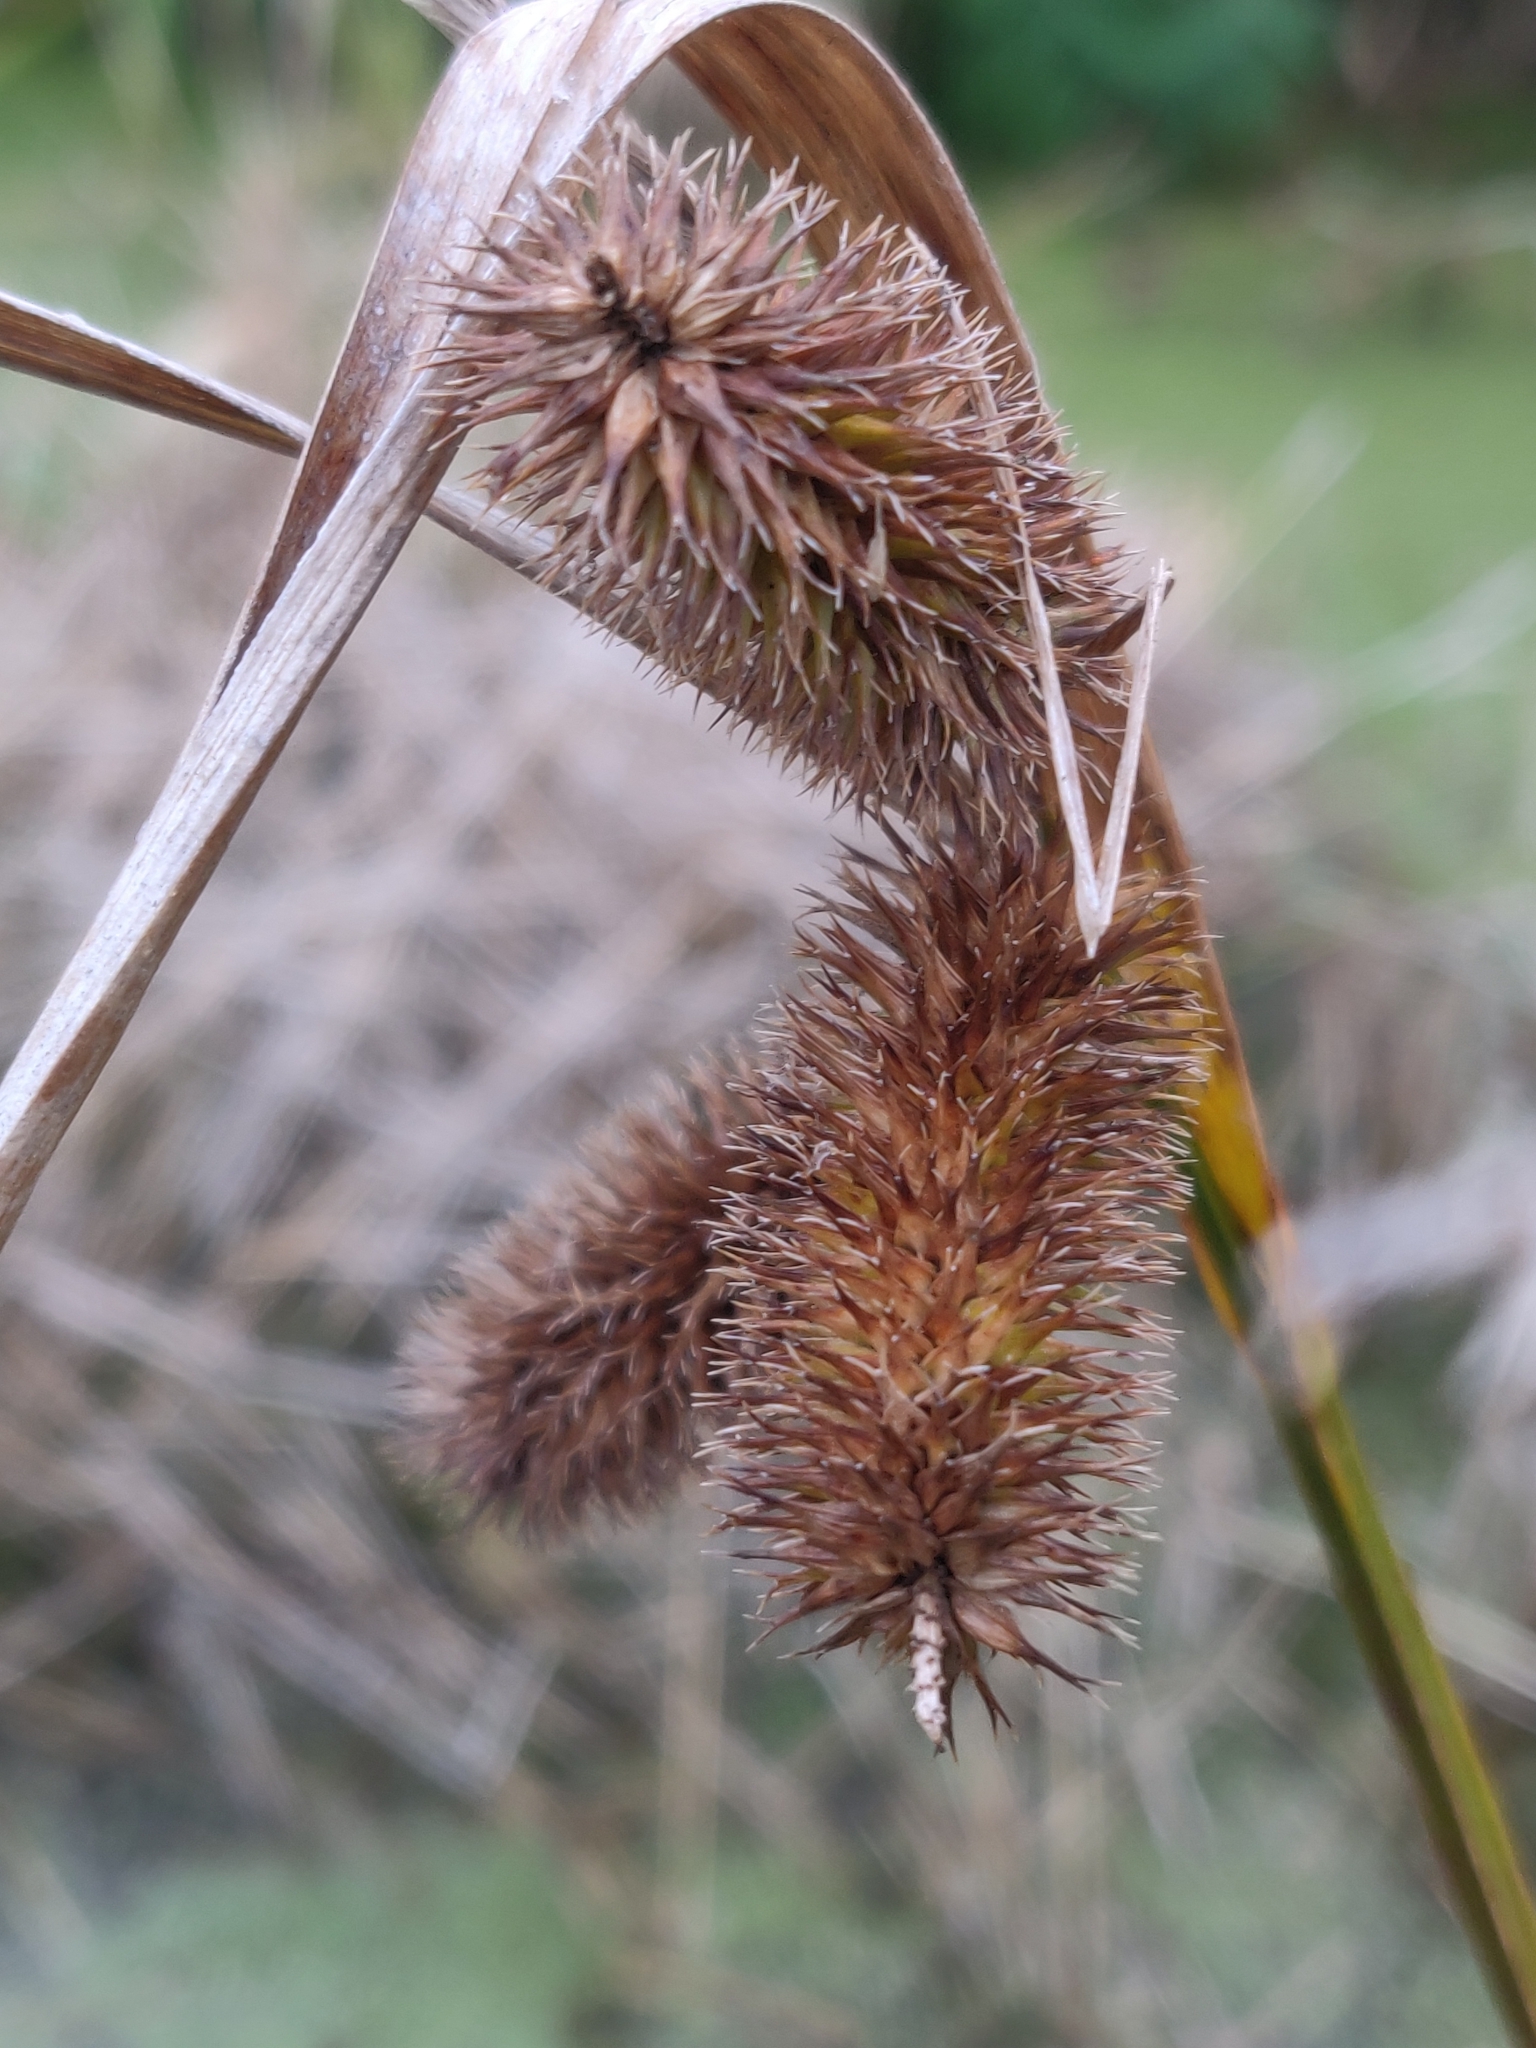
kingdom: Plantae
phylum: Tracheophyta
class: Liliopsida
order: Poales
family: Cyperaceae
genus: Carex
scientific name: Carex comosa
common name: Bristly sedge
